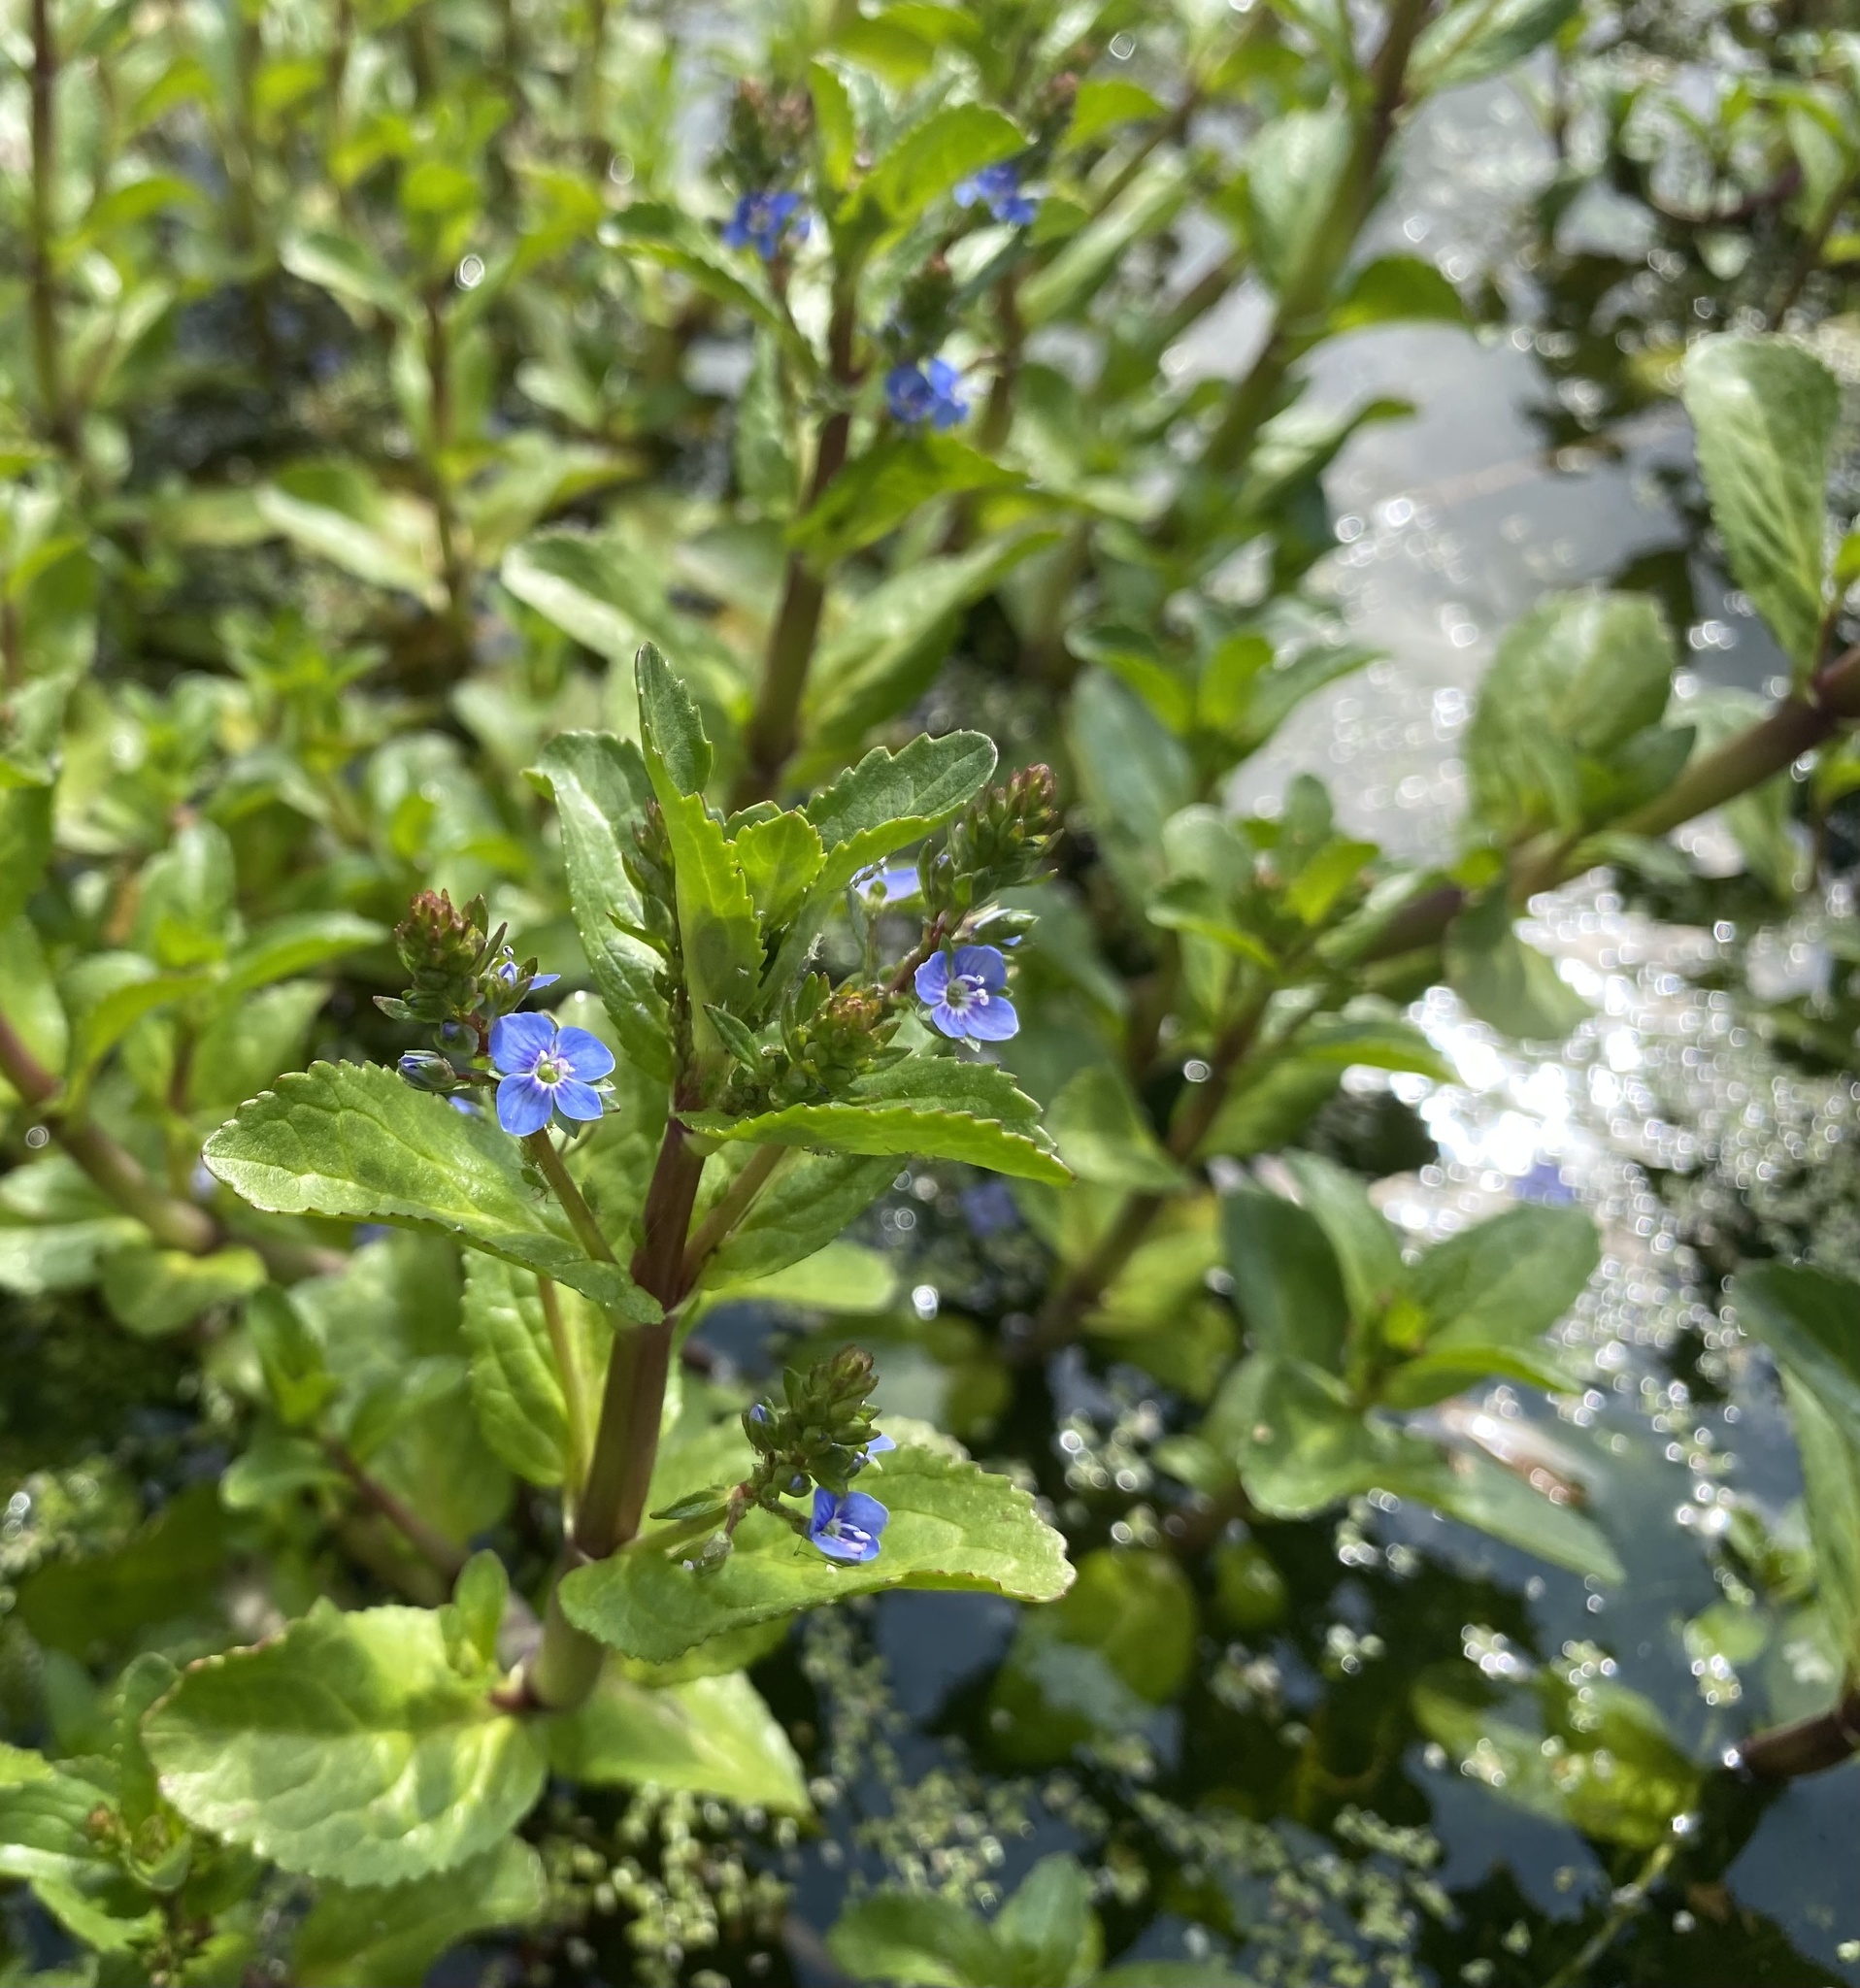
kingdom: Plantae
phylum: Tracheophyta
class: Magnoliopsida
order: Lamiales
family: Plantaginaceae
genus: Veronica
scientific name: Veronica beccabunga
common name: Brooklime
